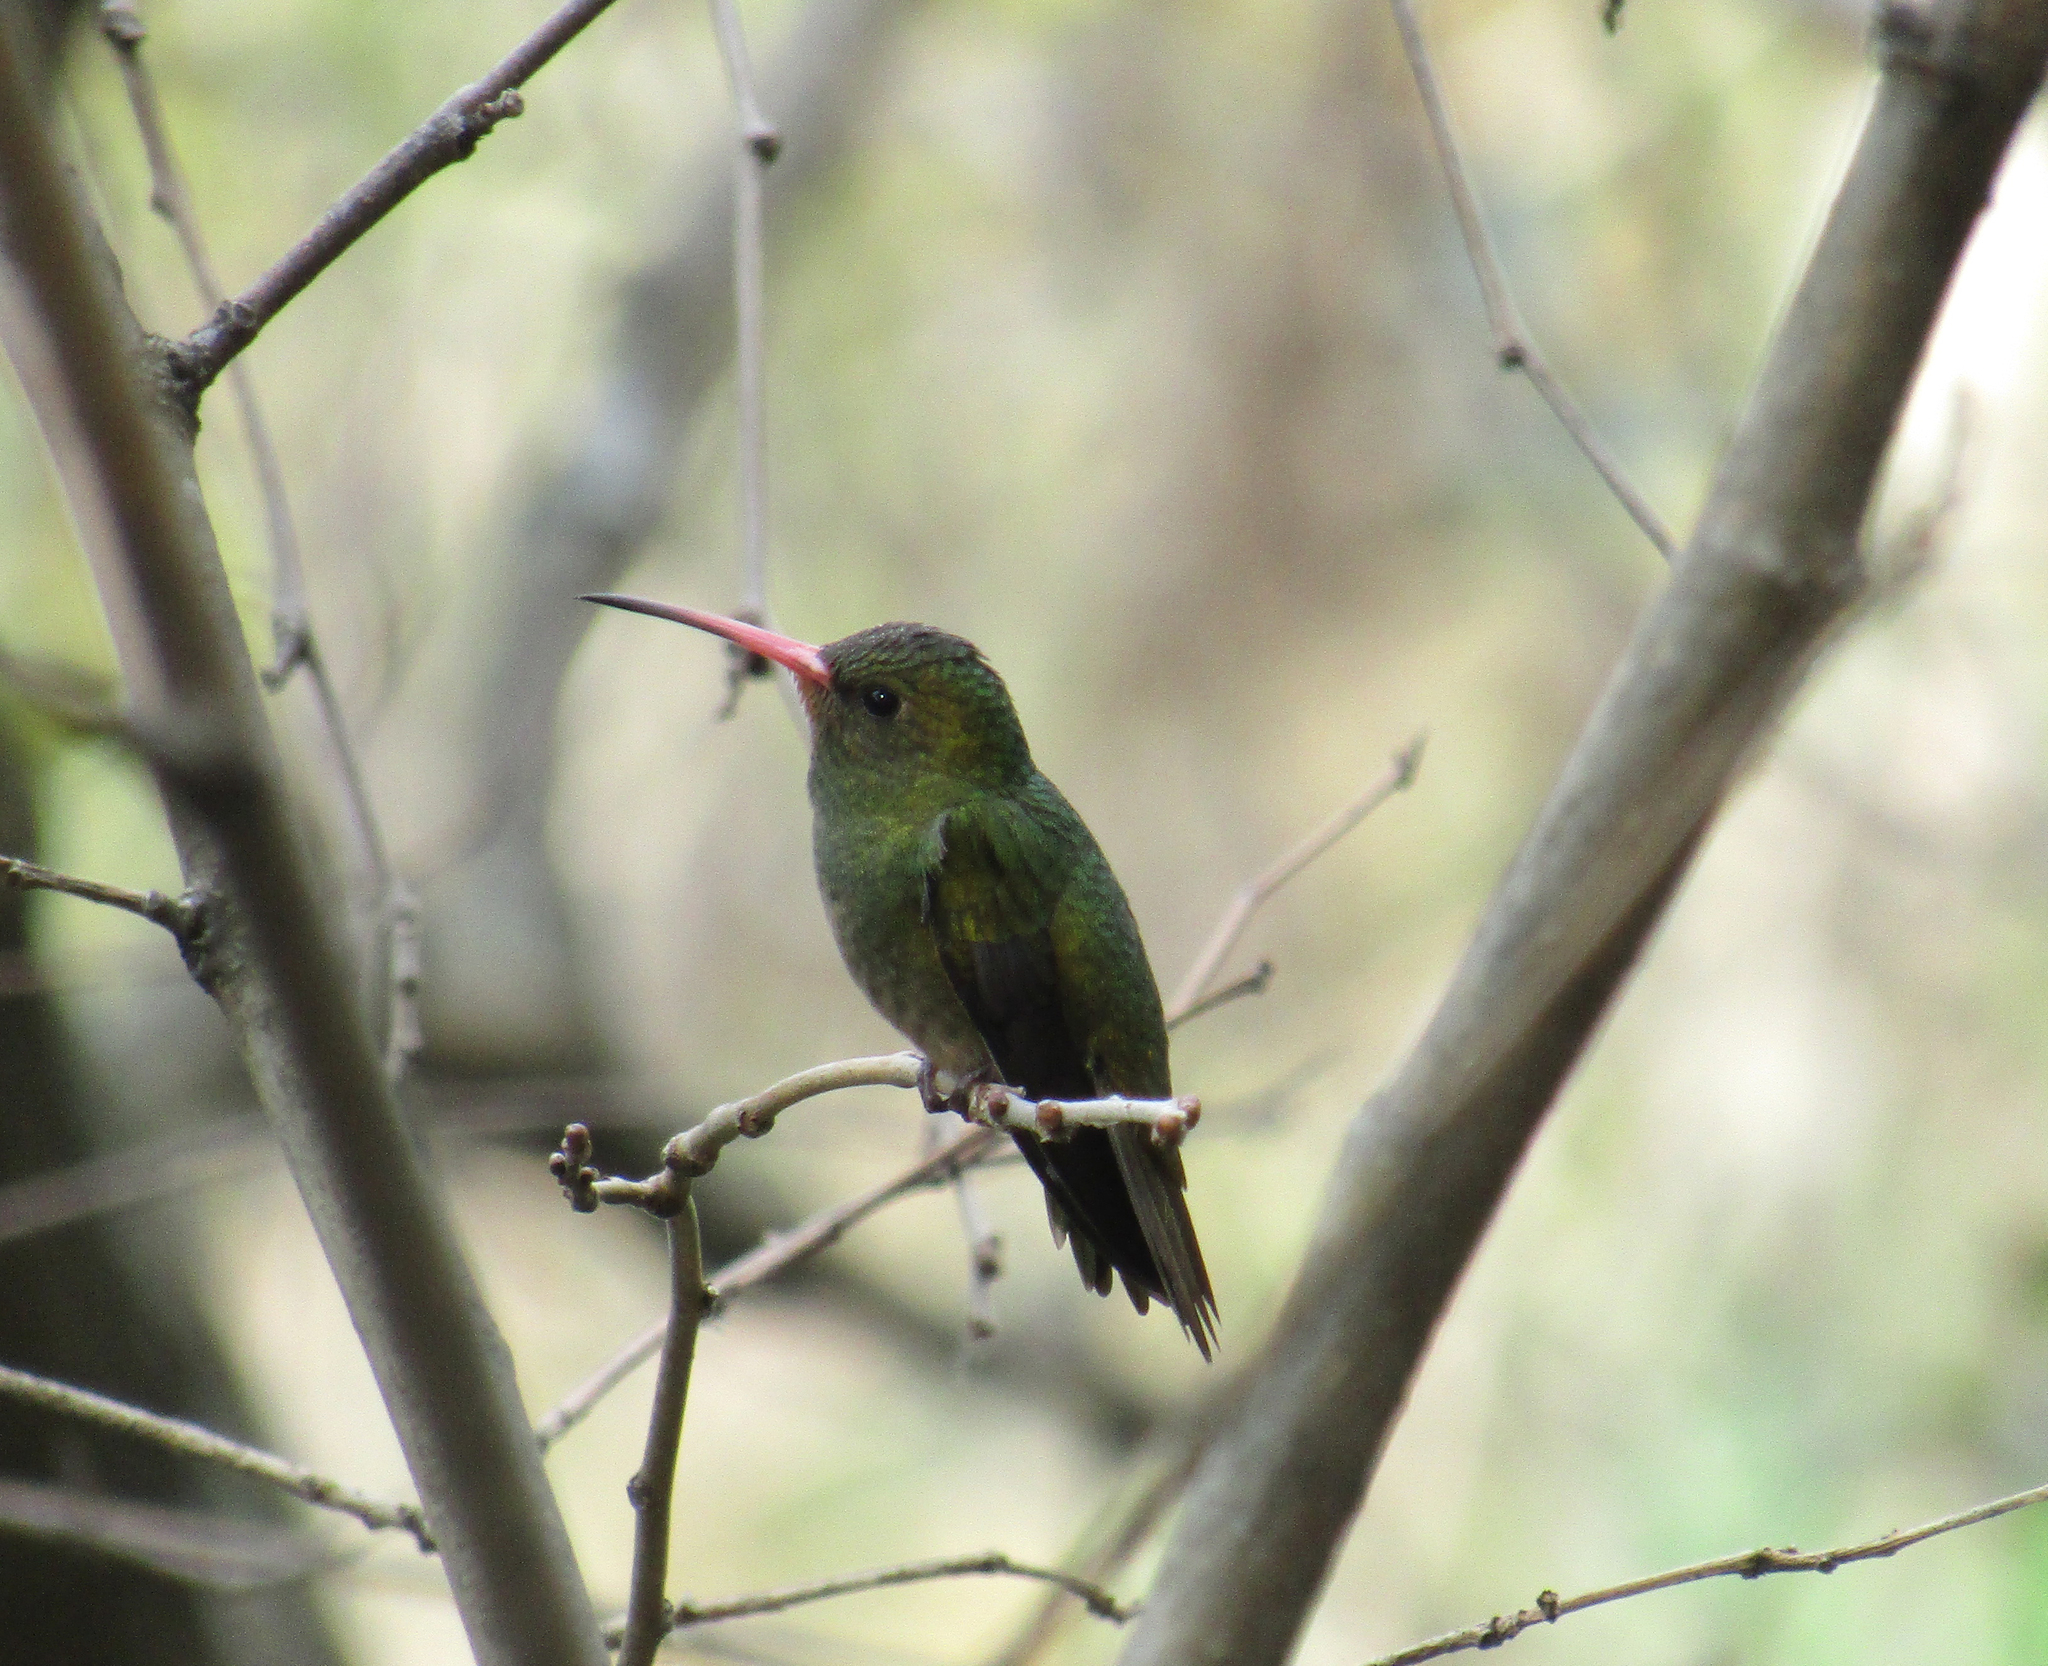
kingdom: Animalia
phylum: Chordata
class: Aves
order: Apodiformes
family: Trochilidae
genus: Hylocharis
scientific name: Hylocharis chrysura
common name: Gilded sapphire
